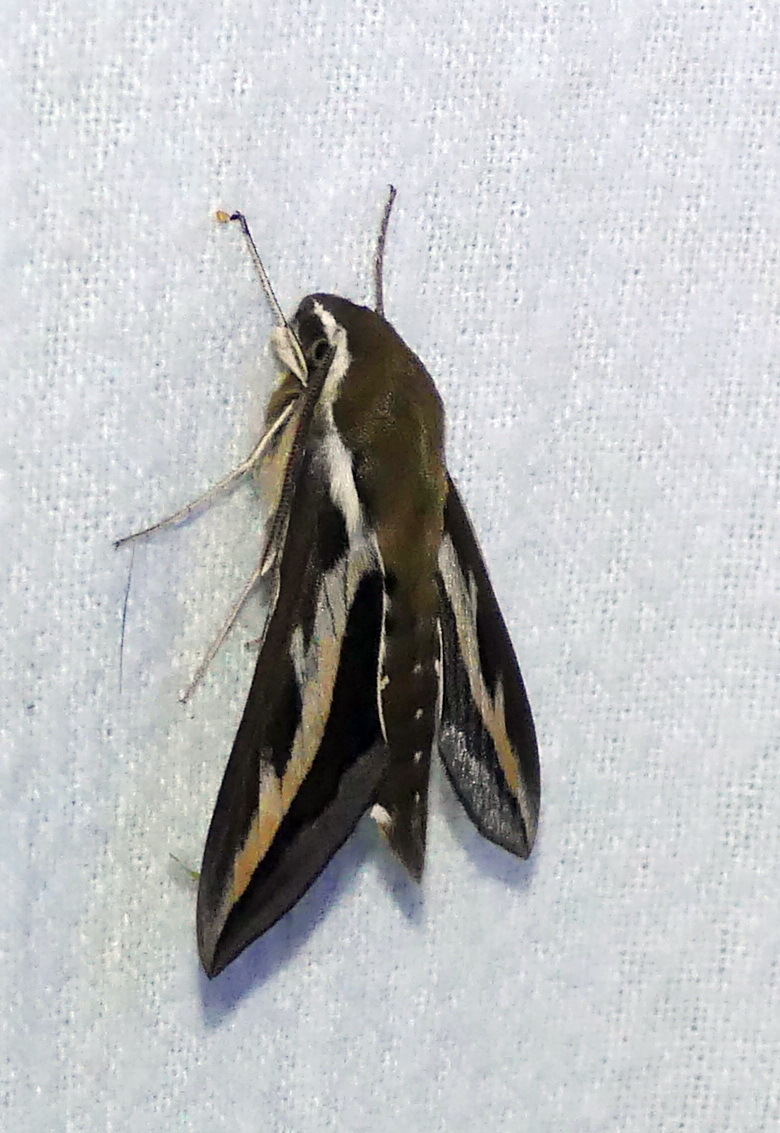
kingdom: Animalia
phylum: Arthropoda
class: Insecta
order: Lepidoptera
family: Sphingidae
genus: Hyles
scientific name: Hyles gallii
